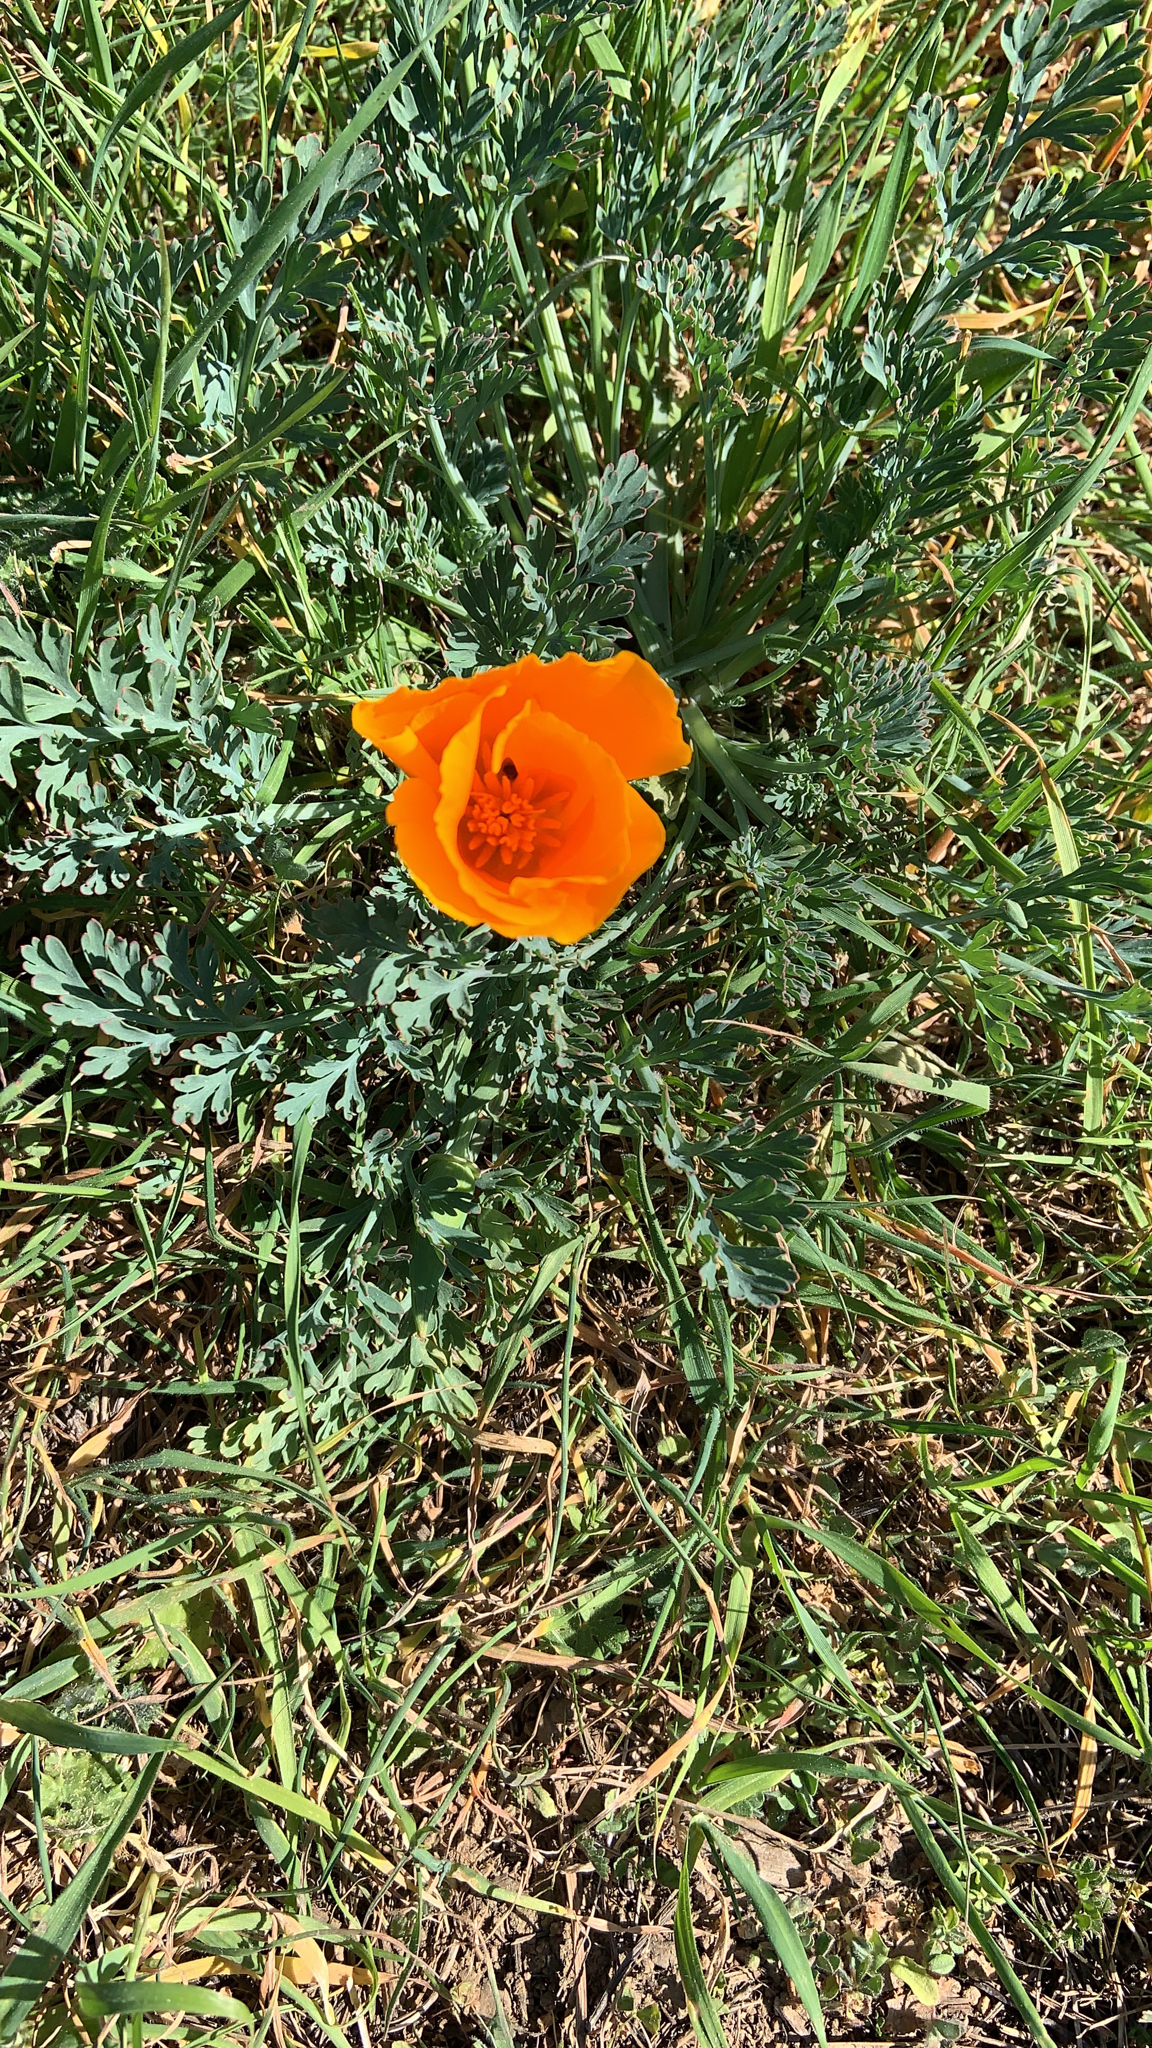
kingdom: Plantae
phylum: Tracheophyta
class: Magnoliopsida
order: Ranunculales
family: Papaveraceae
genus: Eschscholzia
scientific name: Eschscholzia californica
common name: California poppy
